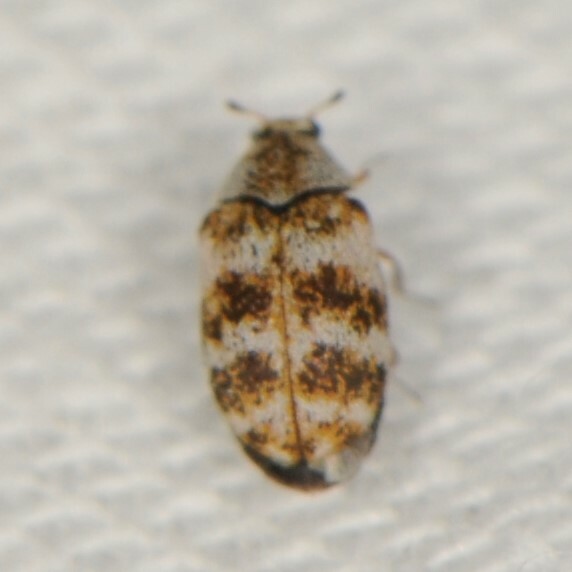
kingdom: Animalia
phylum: Arthropoda
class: Insecta
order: Coleoptera
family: Dermestidae
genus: Anthrenus
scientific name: Anthrenus verbasci
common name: Varied carpet beetle
